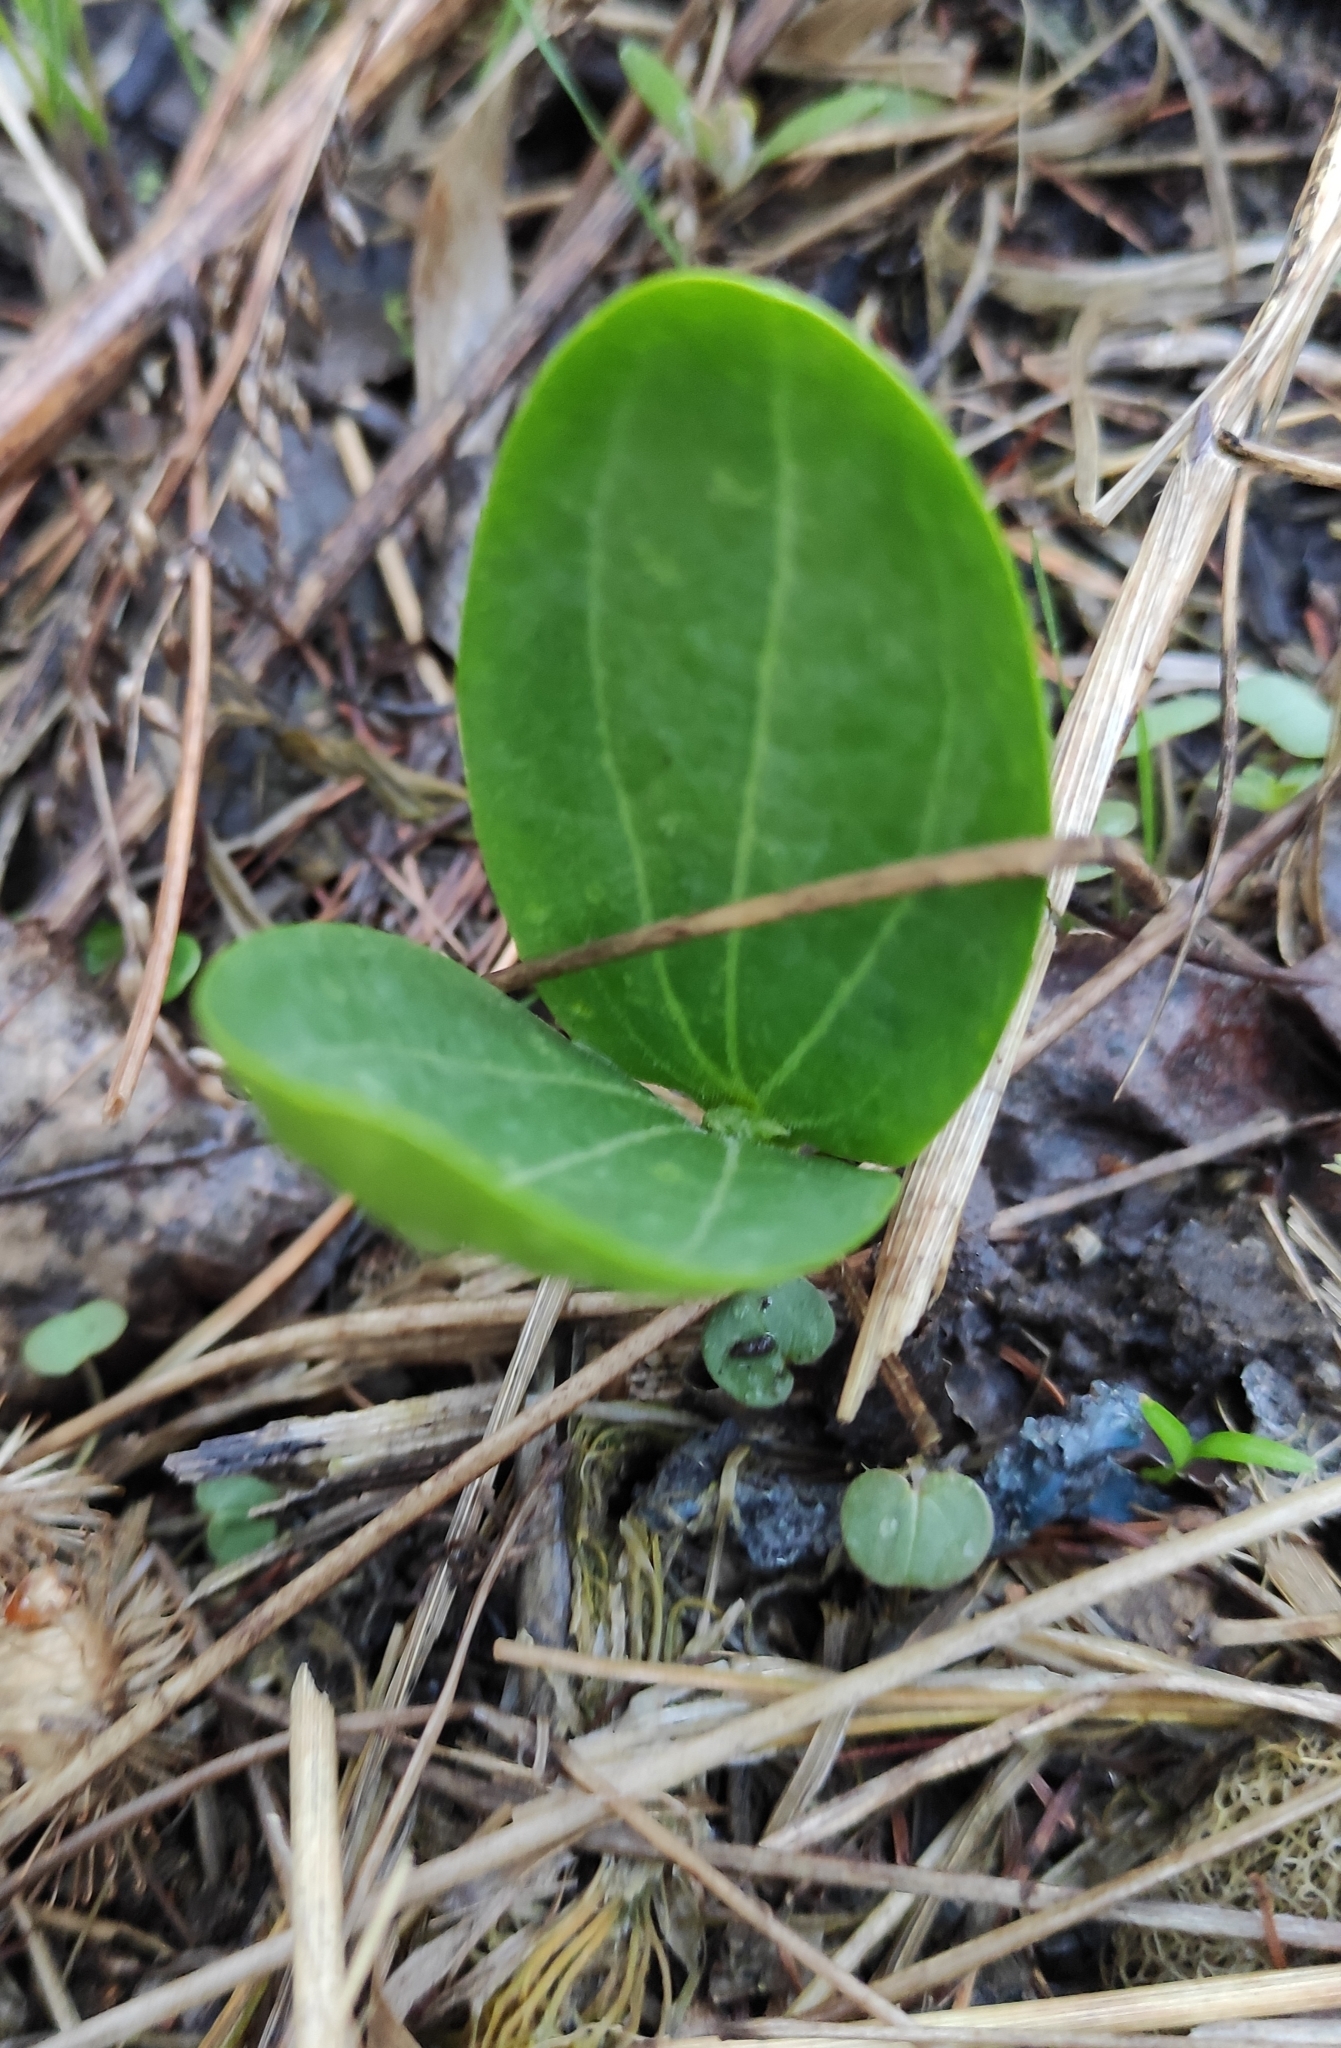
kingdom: Plantae
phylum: Tracheophyta
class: Magnoliopsida
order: Cucurbitales
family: Cucurbitaceae
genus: Echinocystis
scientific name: Echinocystis lobata
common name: Wild cucumber
